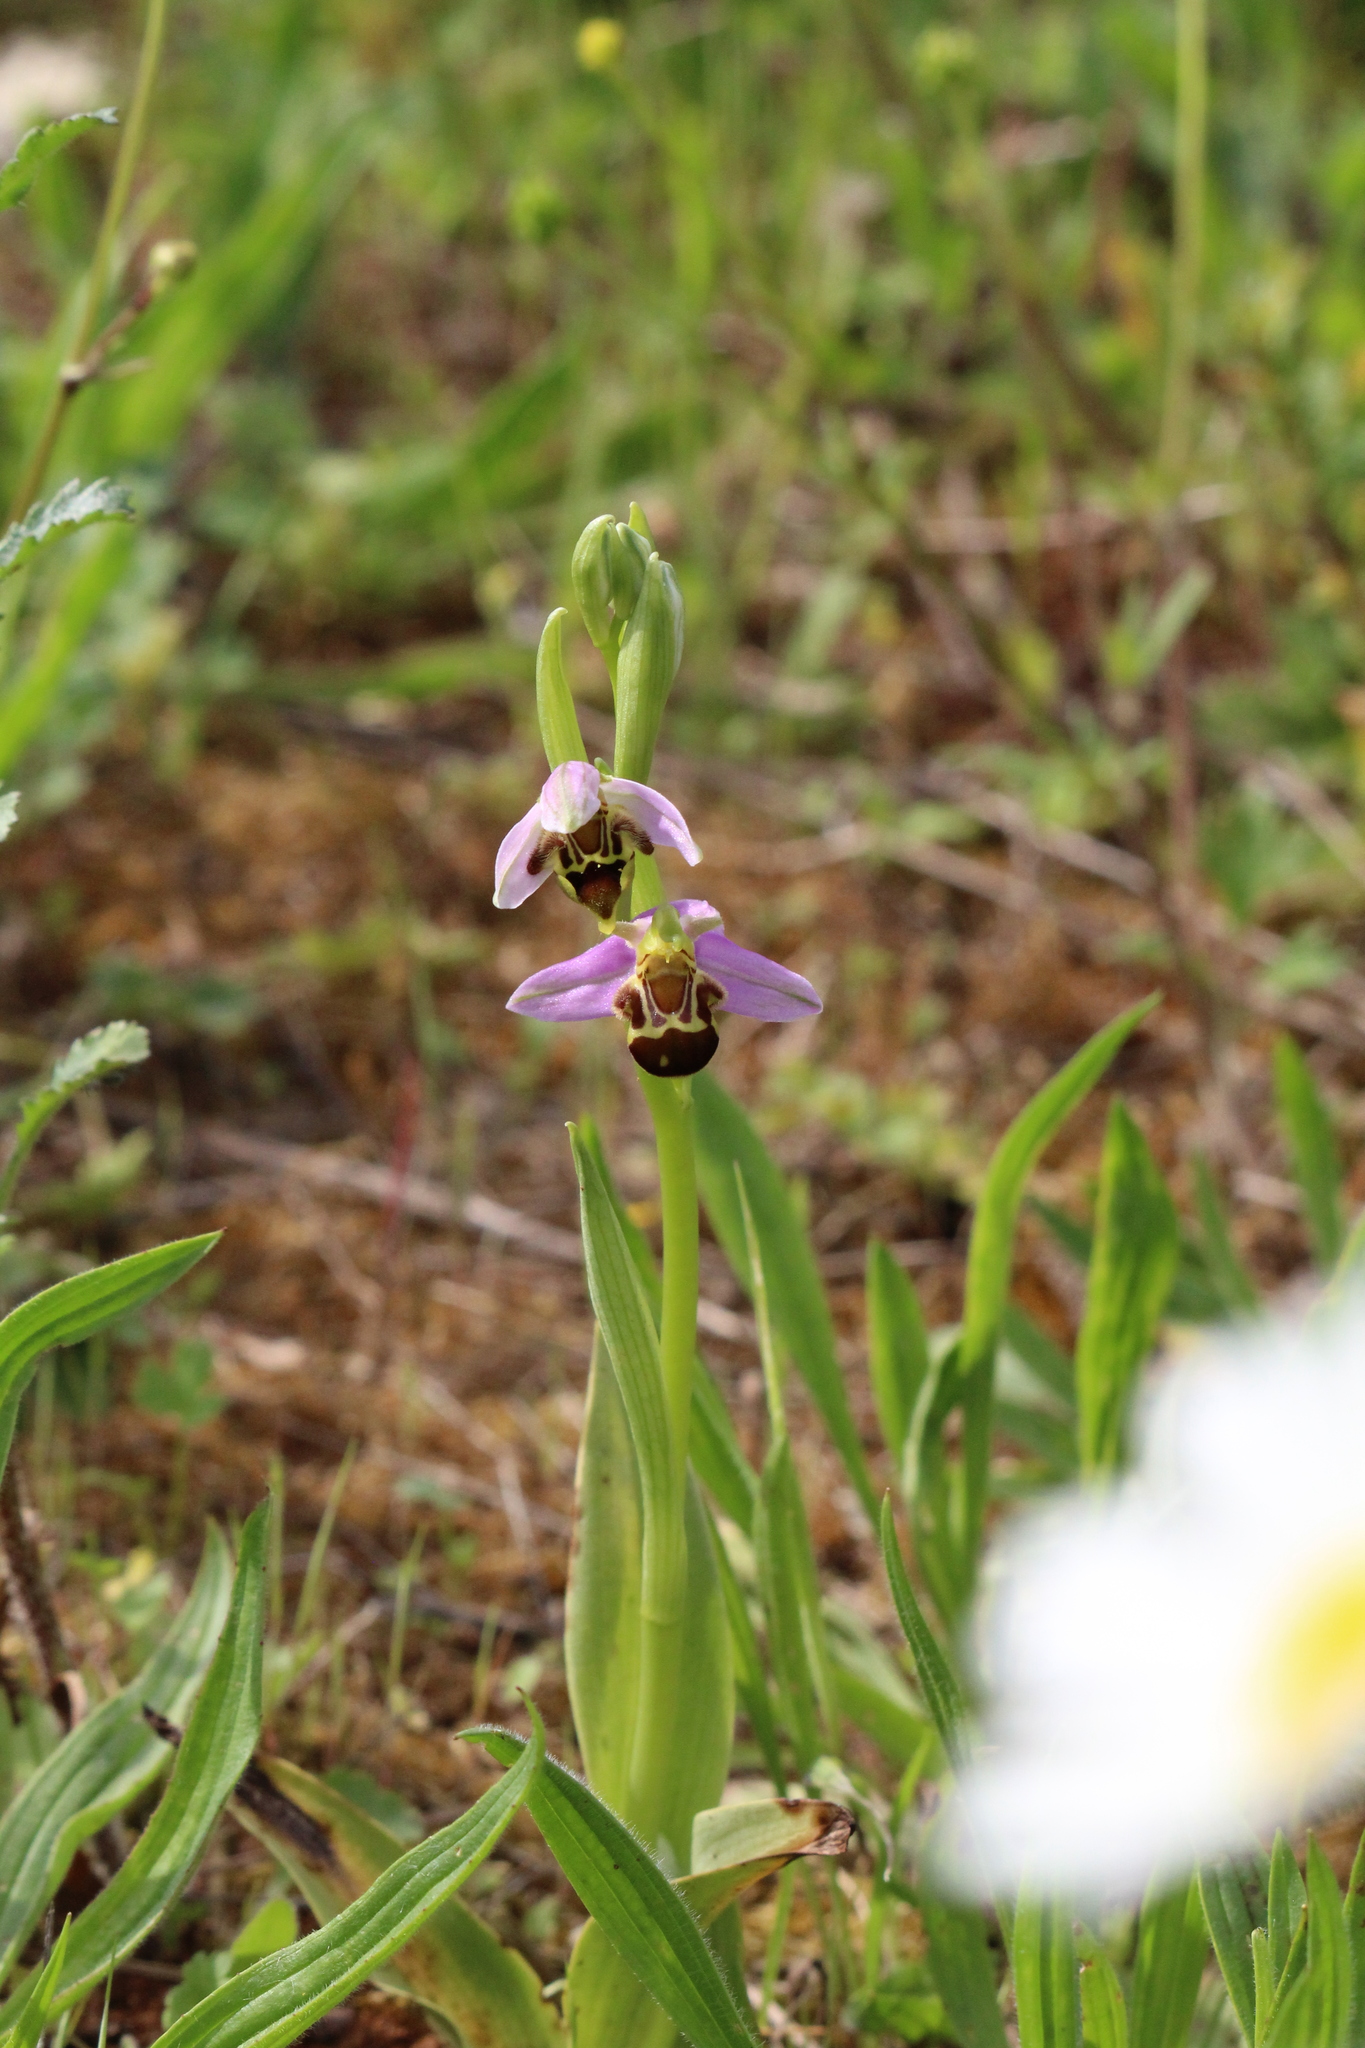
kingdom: Plantae
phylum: Tracheophyta
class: Liliopsida
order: Asparagales
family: Orchidaceae
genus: Ophrys
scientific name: Ophrys apifera
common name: Bee orchid
